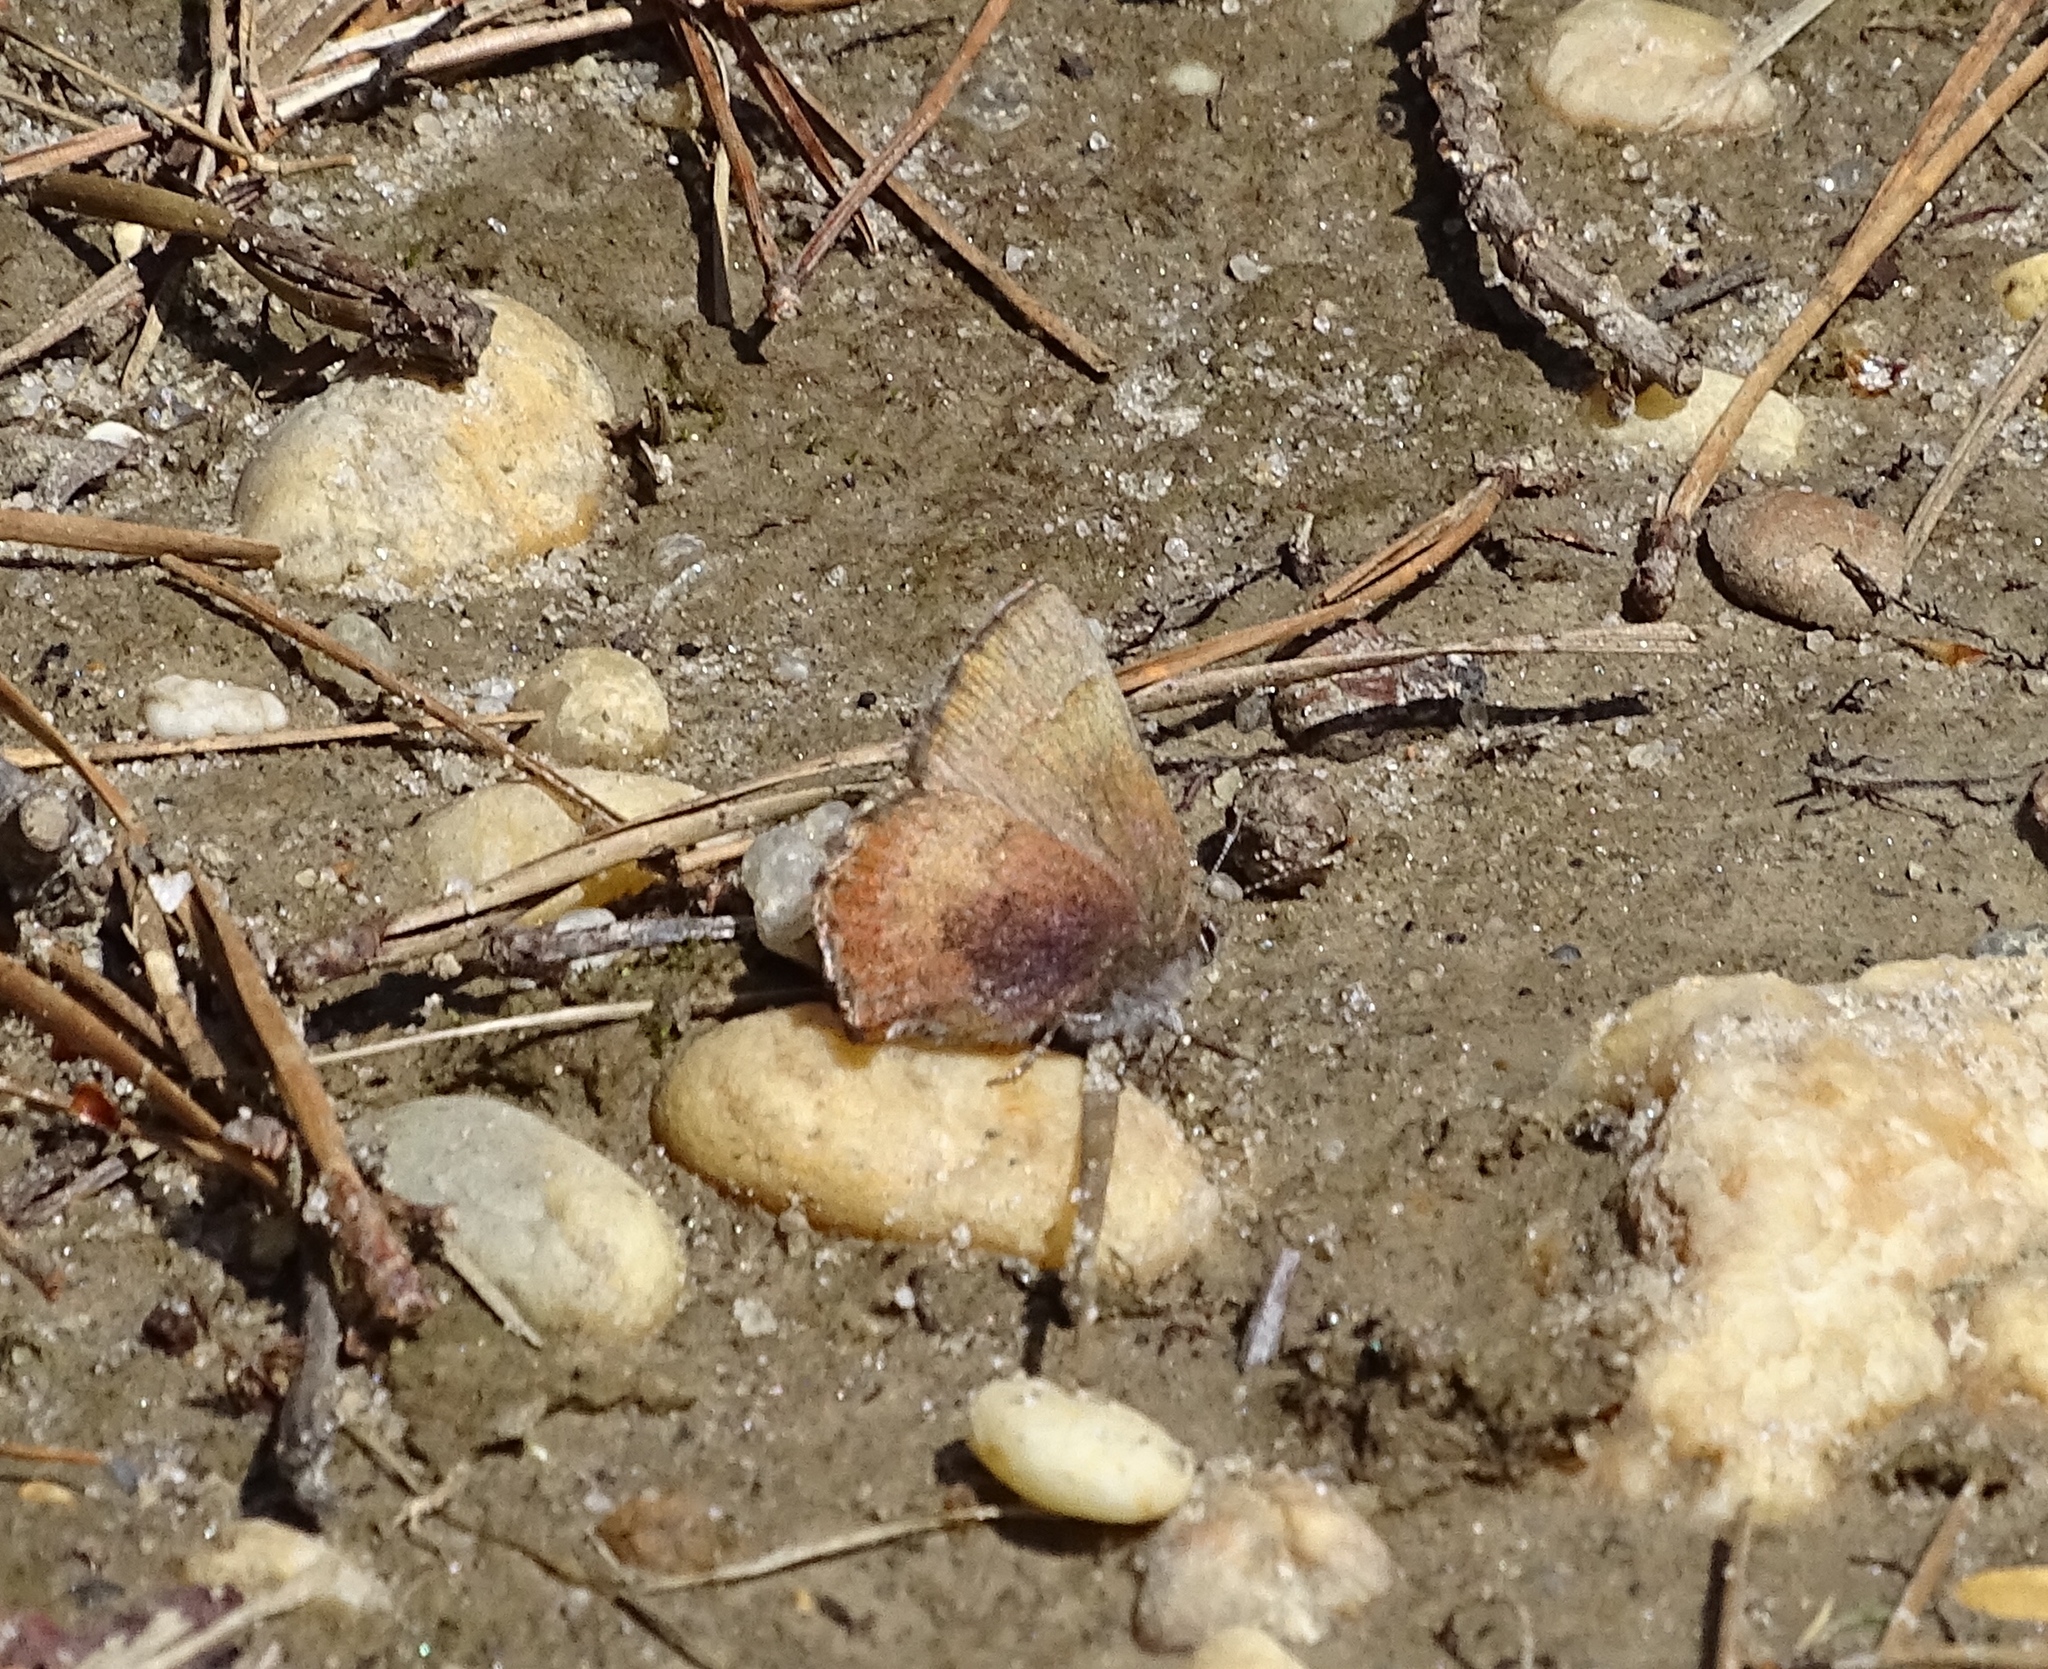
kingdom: Animalia
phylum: Arthropoda
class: Insecta
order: Lepidoptera
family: Lycaenidae
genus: Incisalia
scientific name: Incisalia irioides
